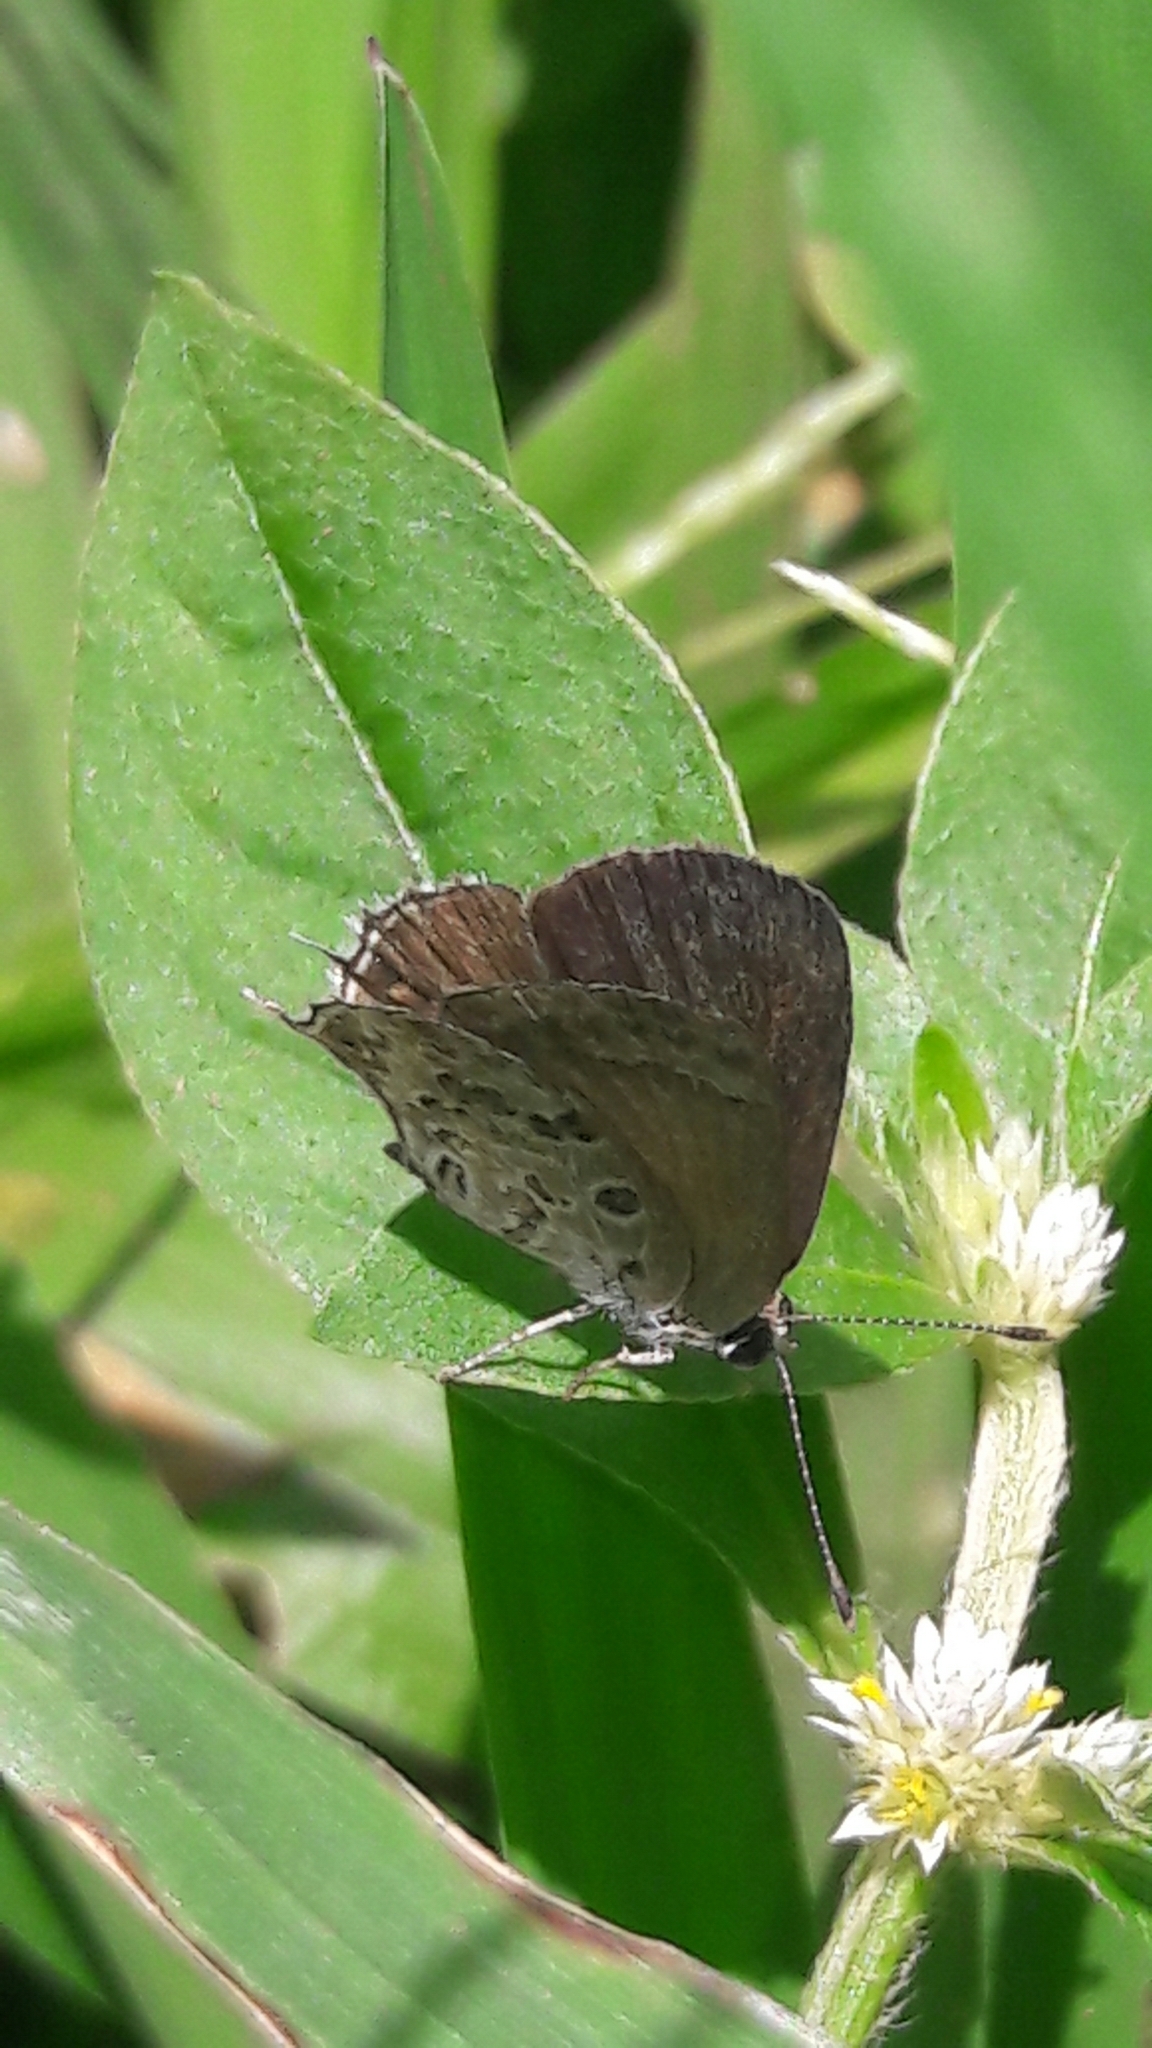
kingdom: Animalia
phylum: Arthropoda
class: Insecta
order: Lepidoptera
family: Lycaenidae
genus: Strymon
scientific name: Strymon astiocha
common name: Gray-spotted scrub-hairstreak
